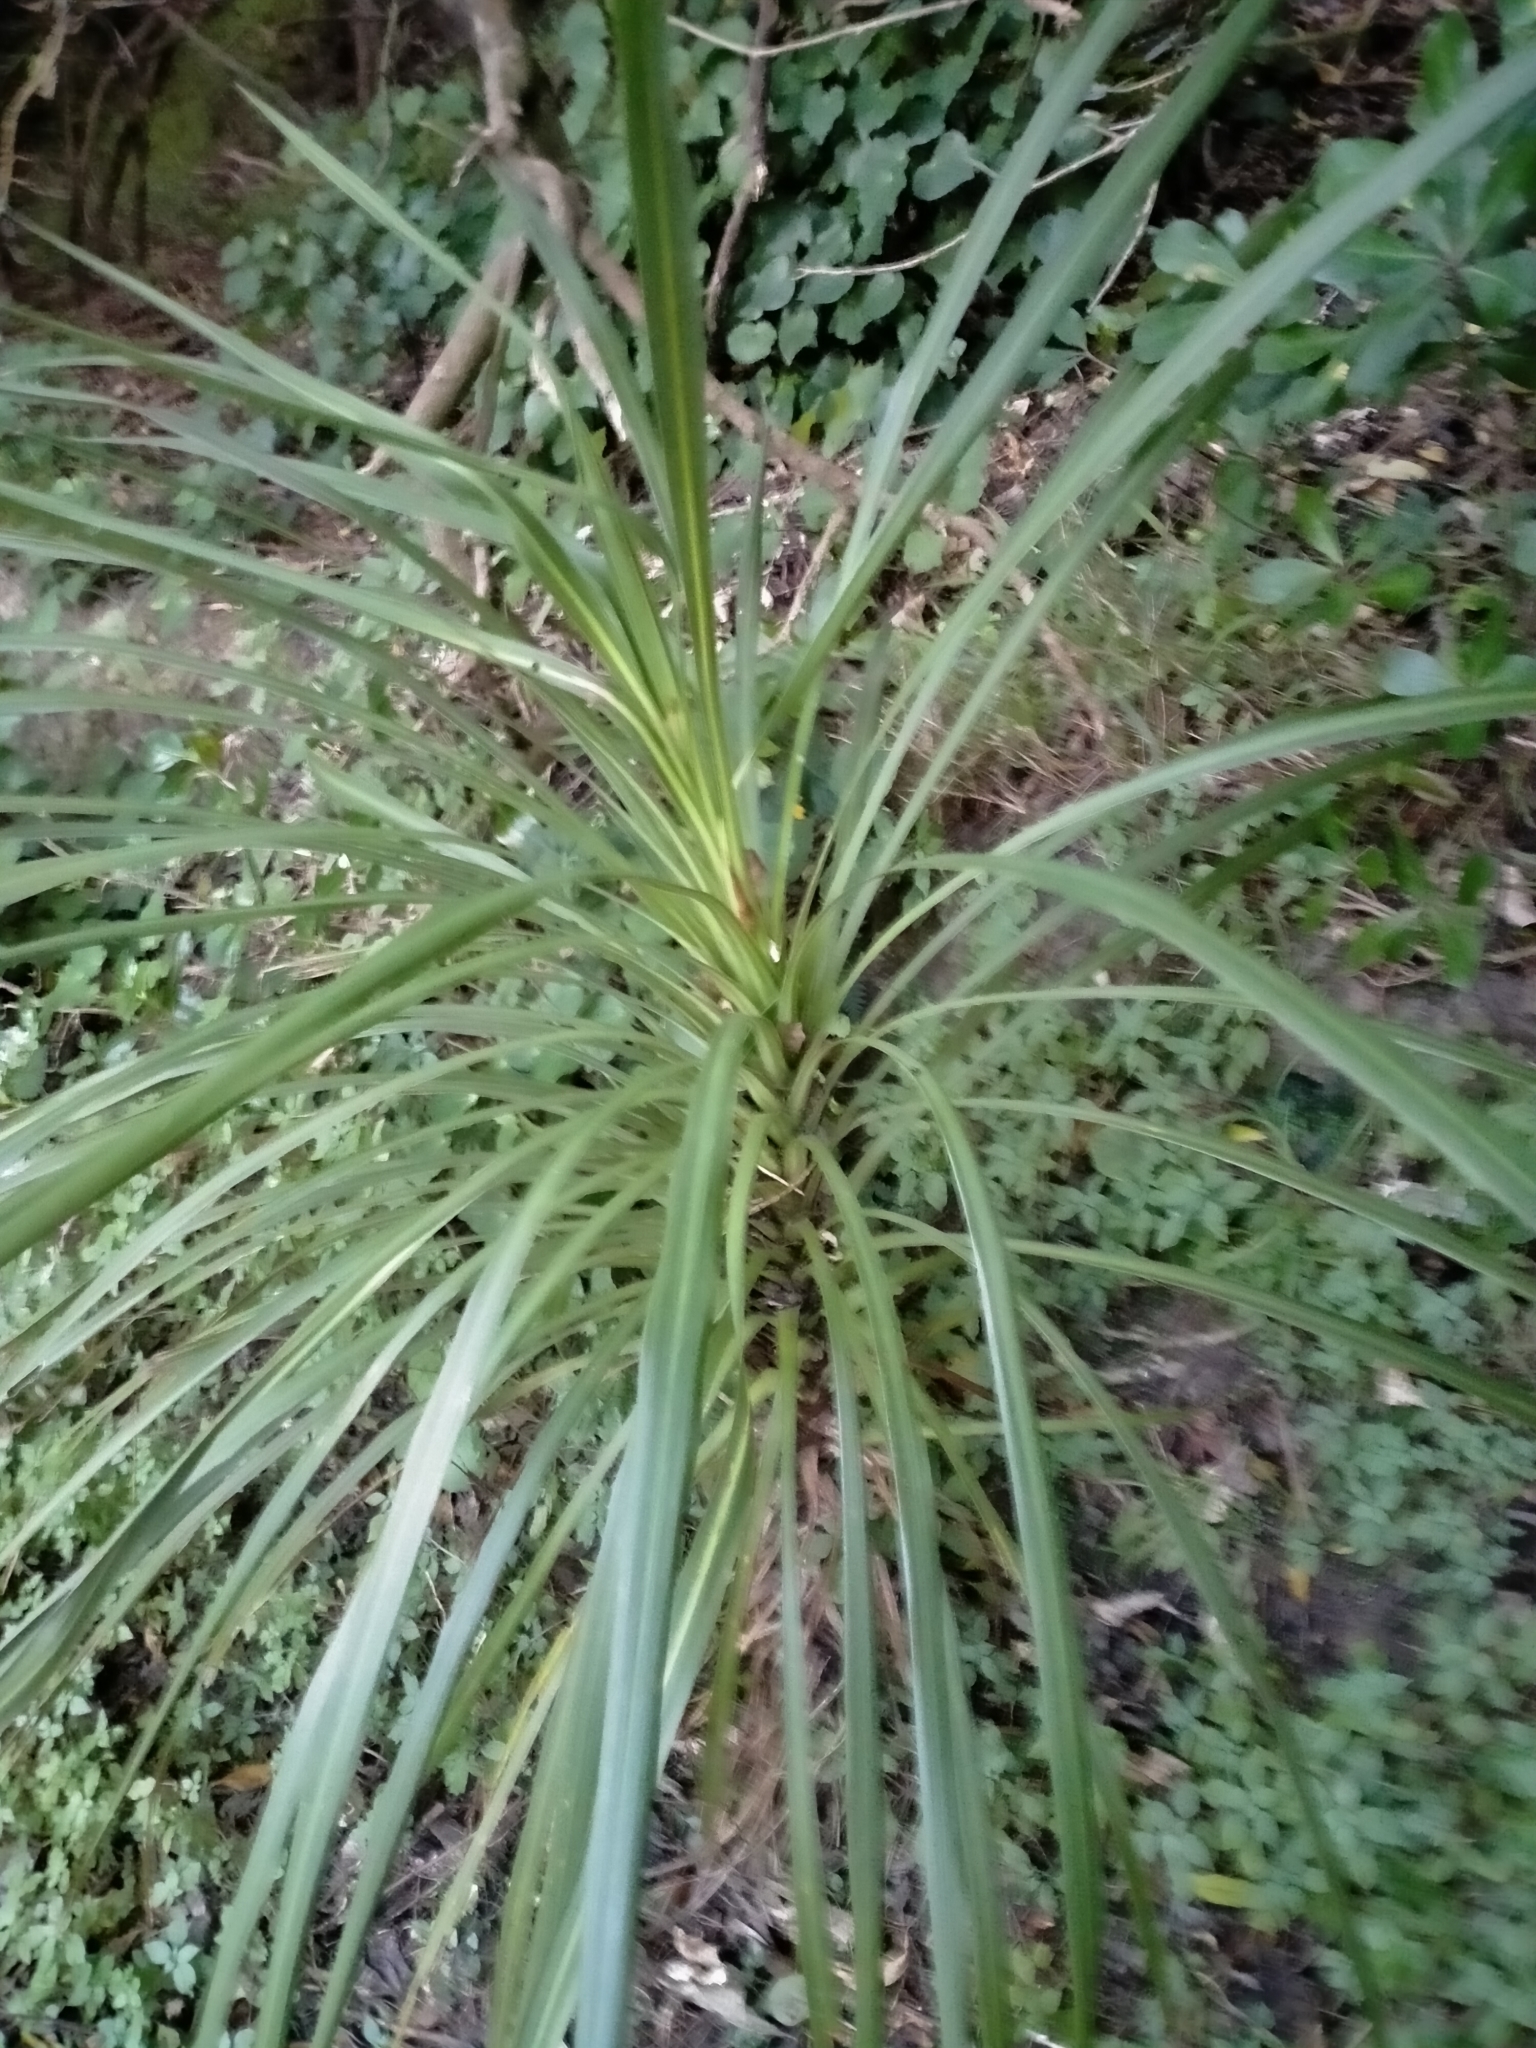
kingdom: Plantae
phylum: Tracheophyta
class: Liliopsida
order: Asparagales
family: Asparagaceae
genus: Cordyline
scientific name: Cordyline australis
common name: Cabbage-palm
